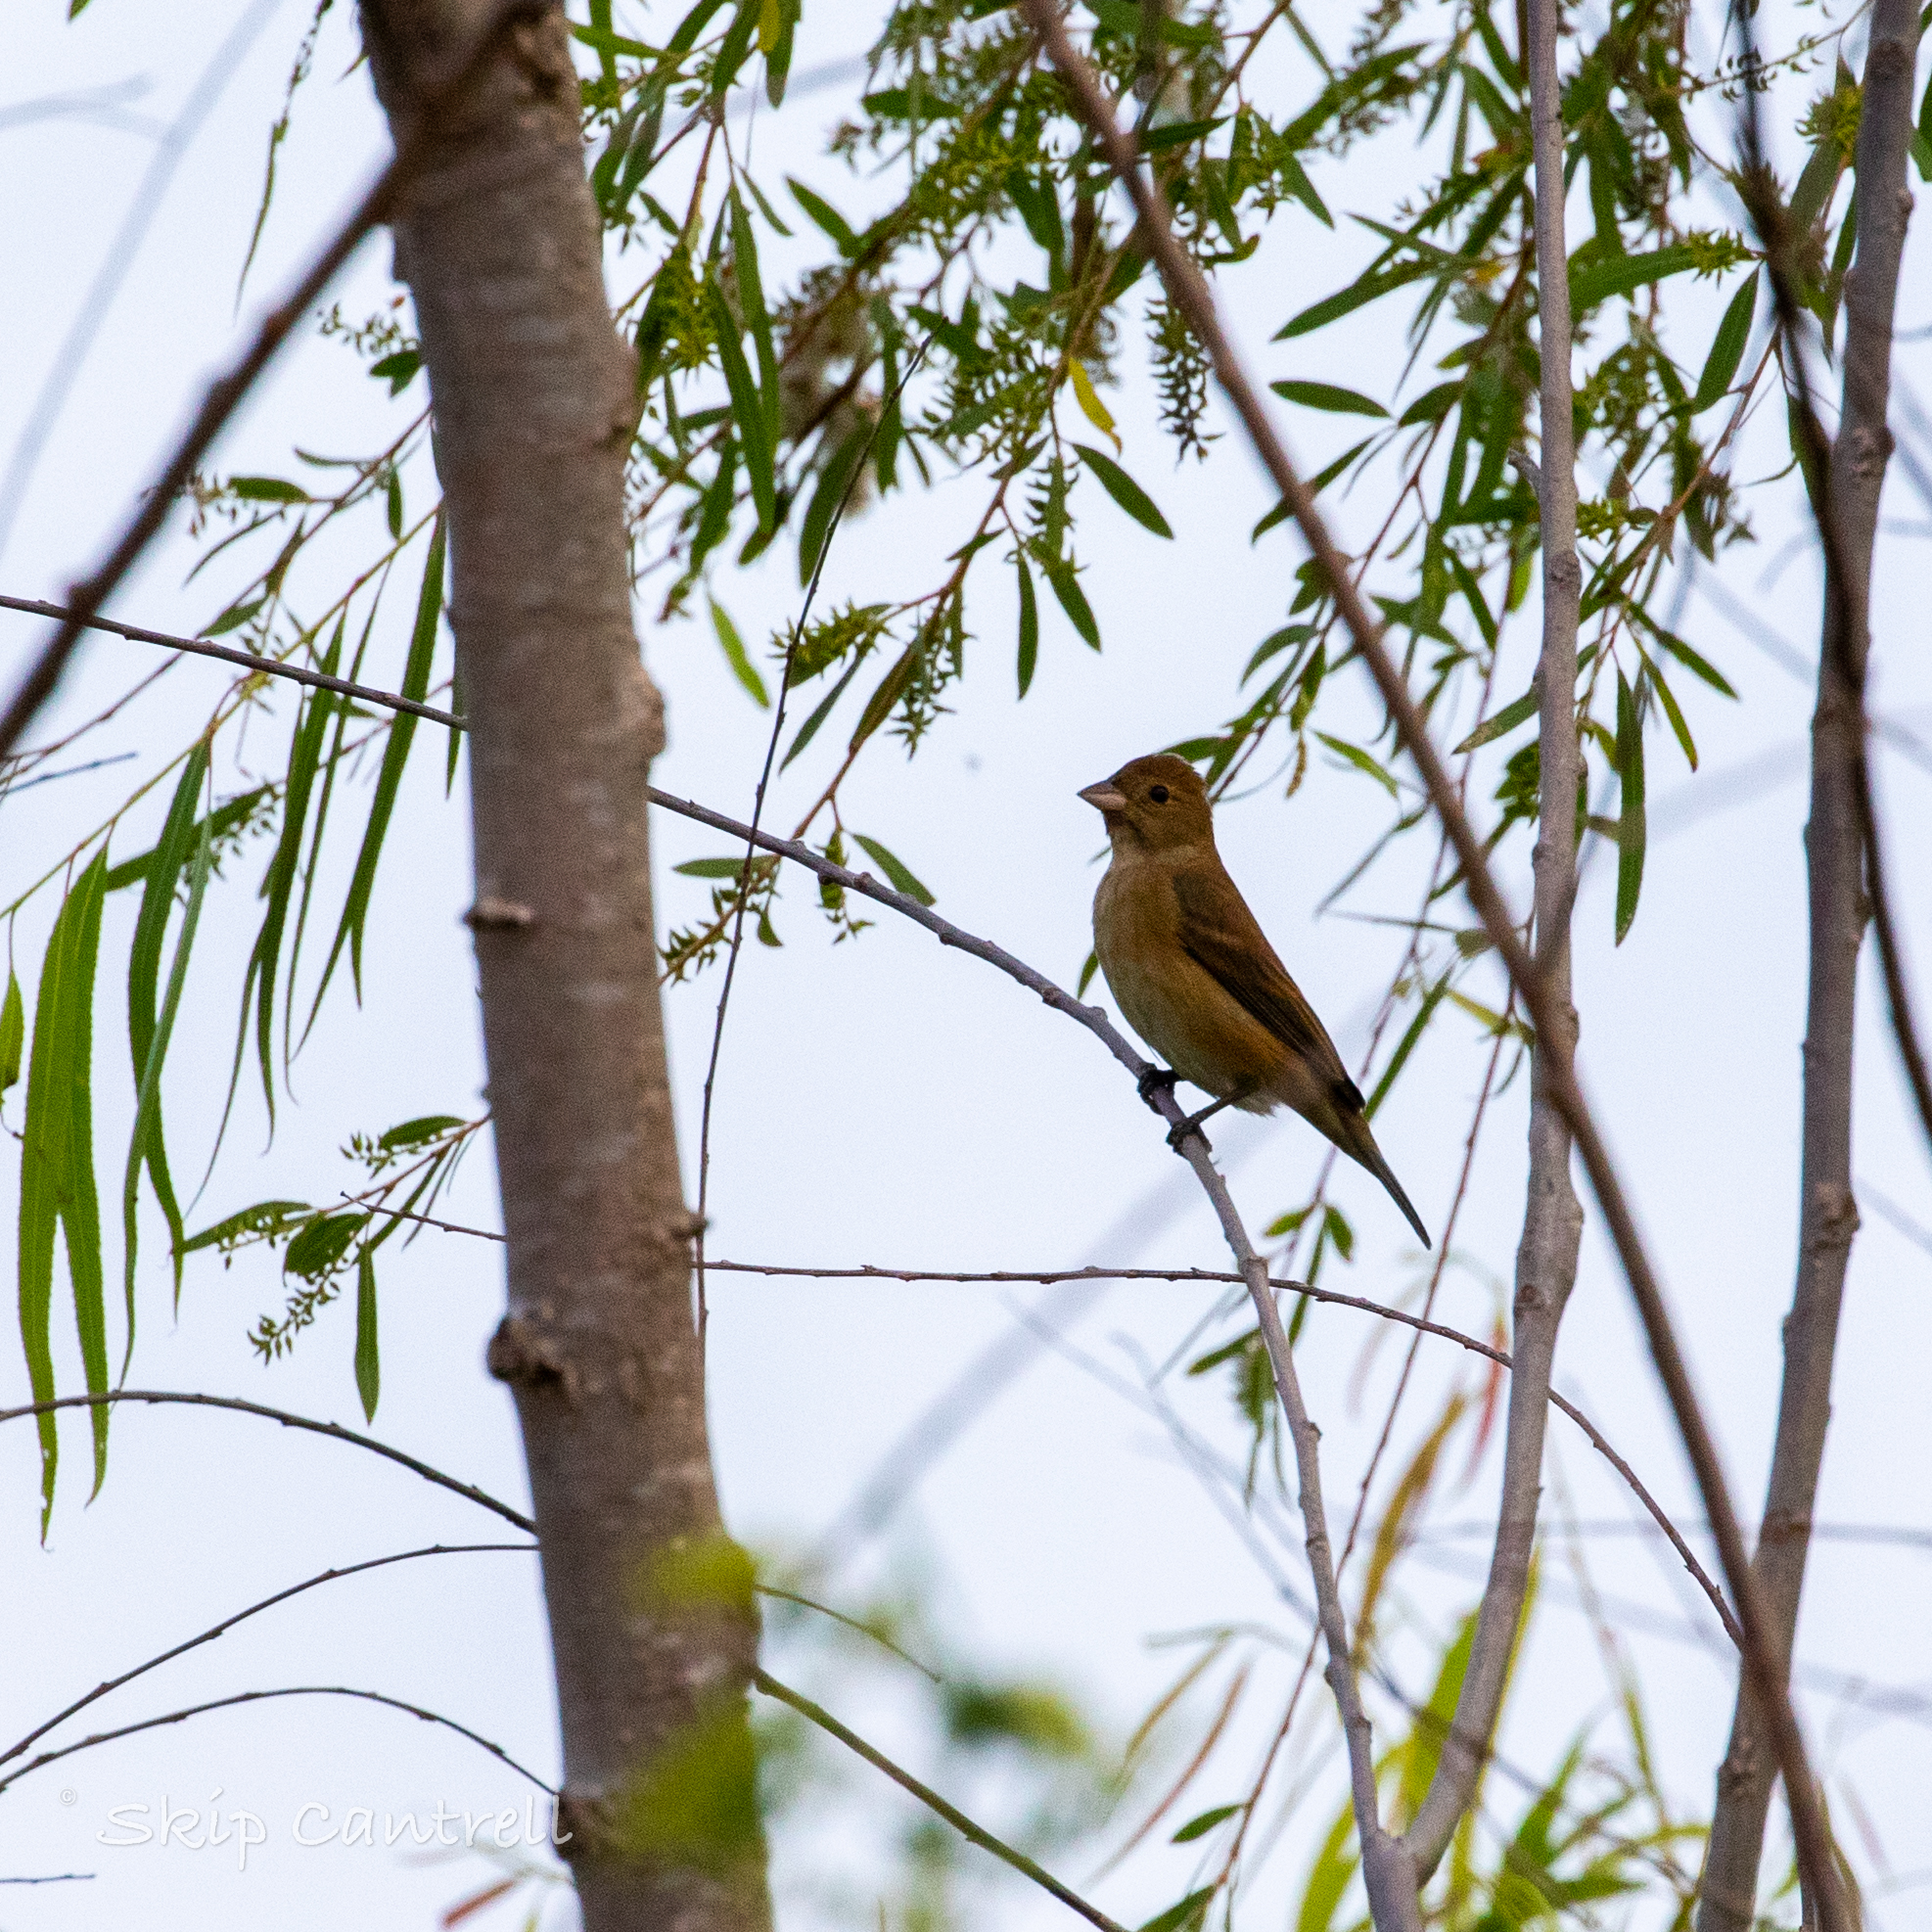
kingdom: Animalia
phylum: Chordata
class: Aves
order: Passeriformes
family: Cardinalidae
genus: Passerina
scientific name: Passerina cyanea
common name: Indigo bunting
